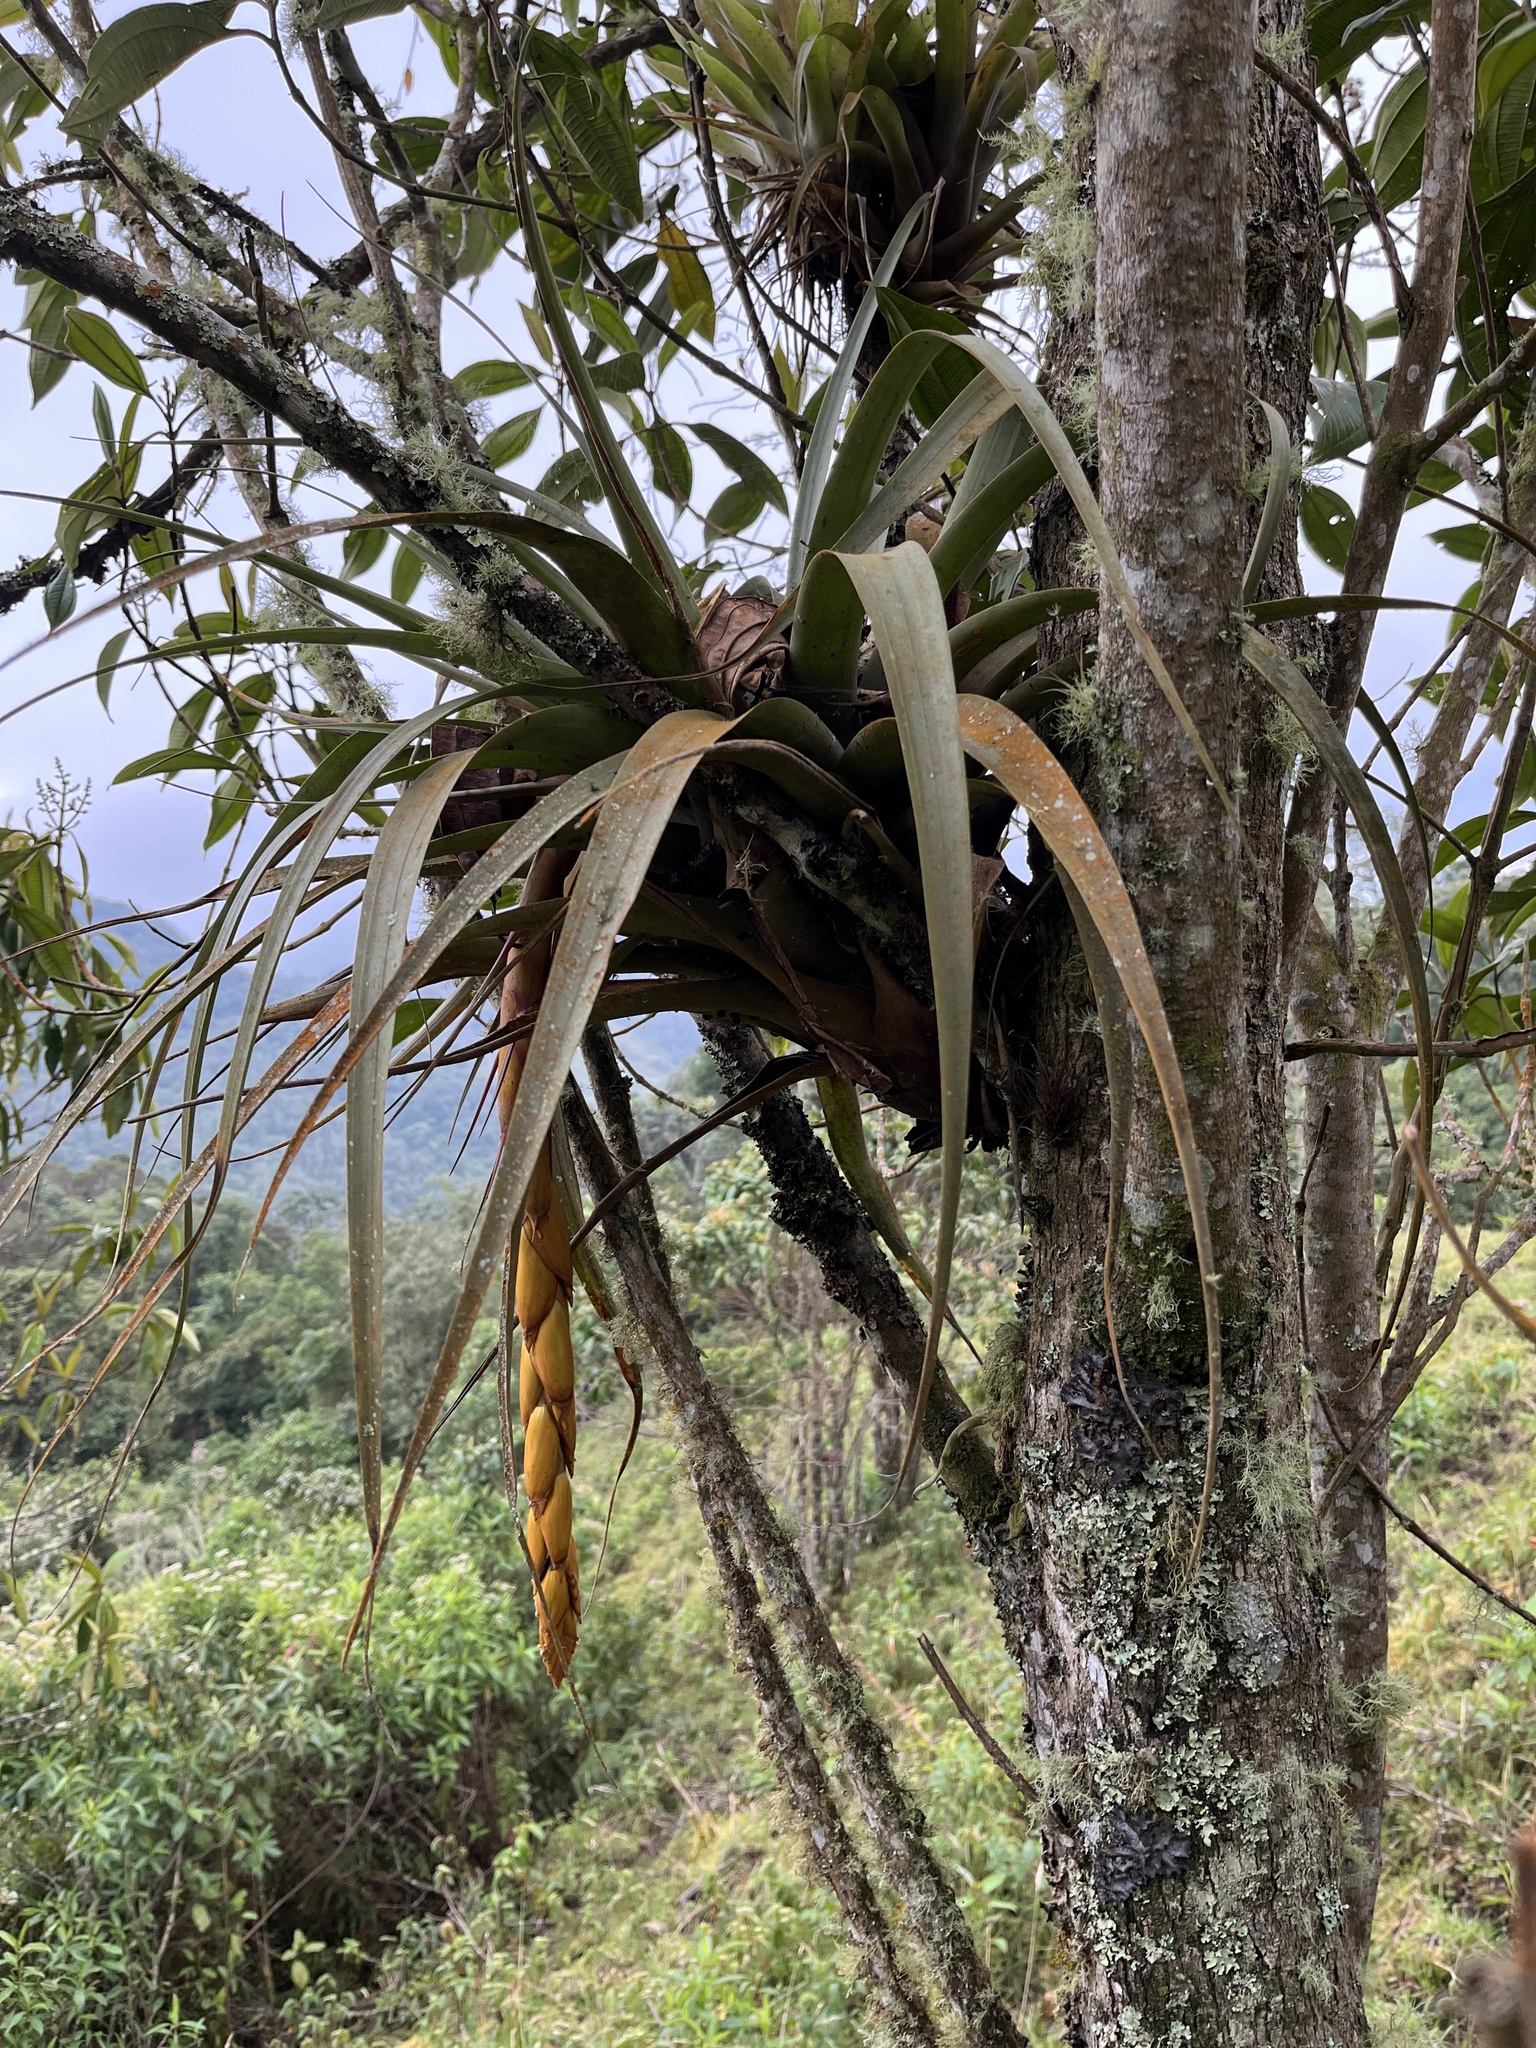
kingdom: Plantae
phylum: Tracheophyta
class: Liliopsida
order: Poales
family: Bromeliaceae
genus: Vriesea
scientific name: Vriesea tequendamae
